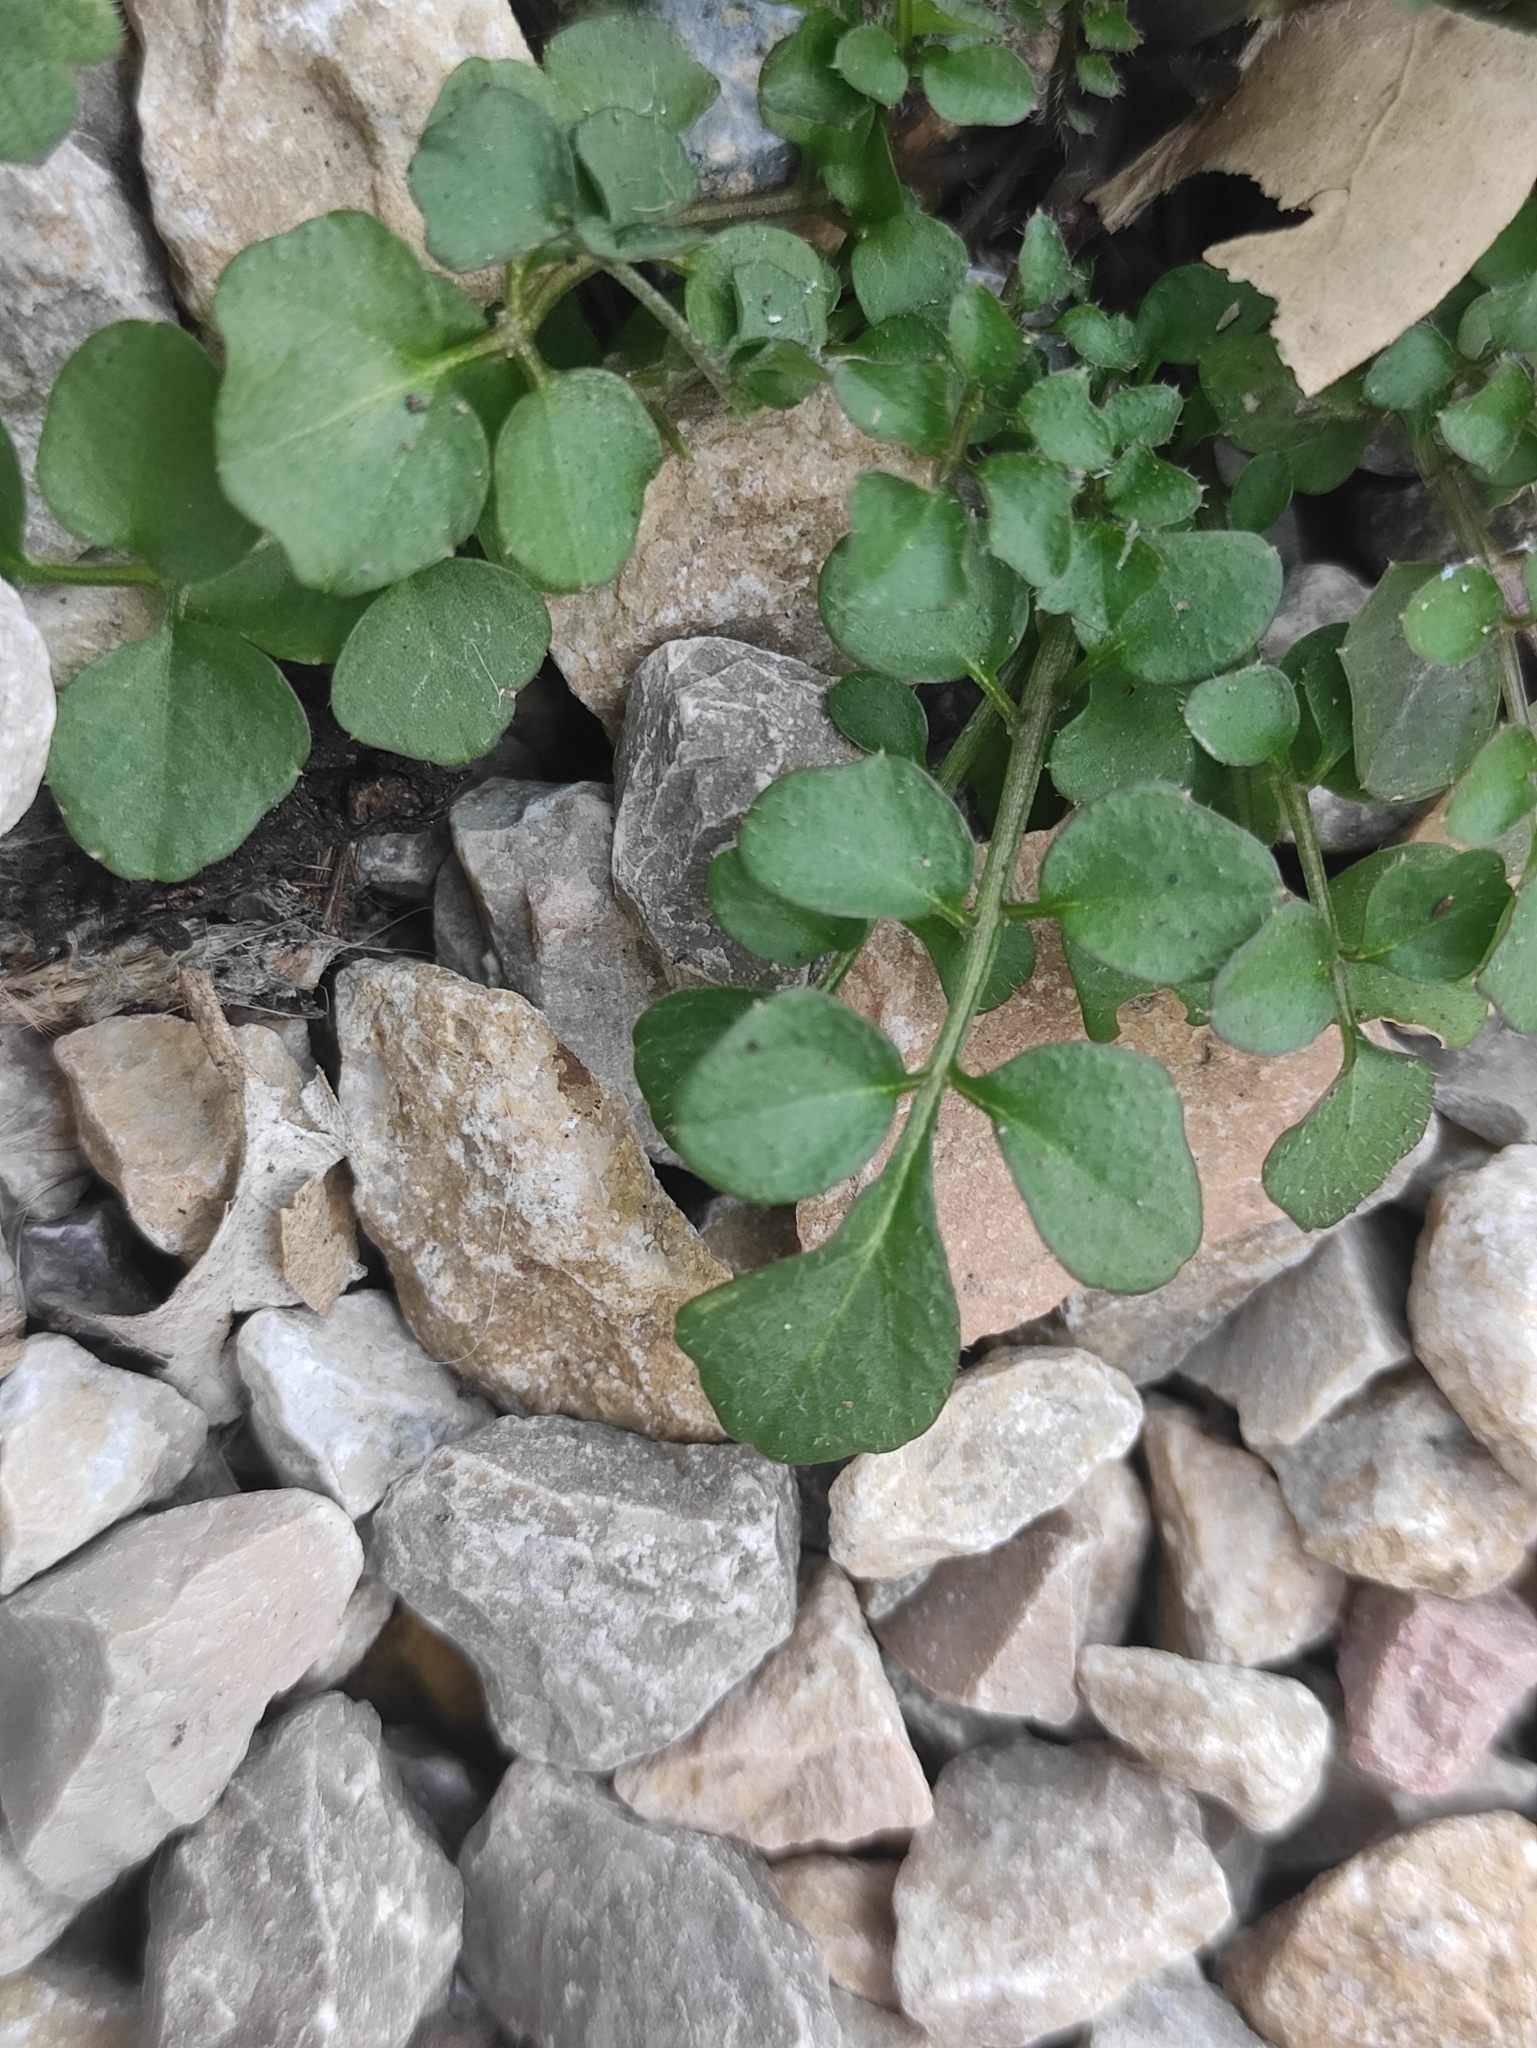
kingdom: Plantae
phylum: Tracheophyta
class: Magnoliopsida
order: Brassicales
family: Brassicaceae
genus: Cardamine
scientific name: Cardamine hirsuta
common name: Hairy bittercress
